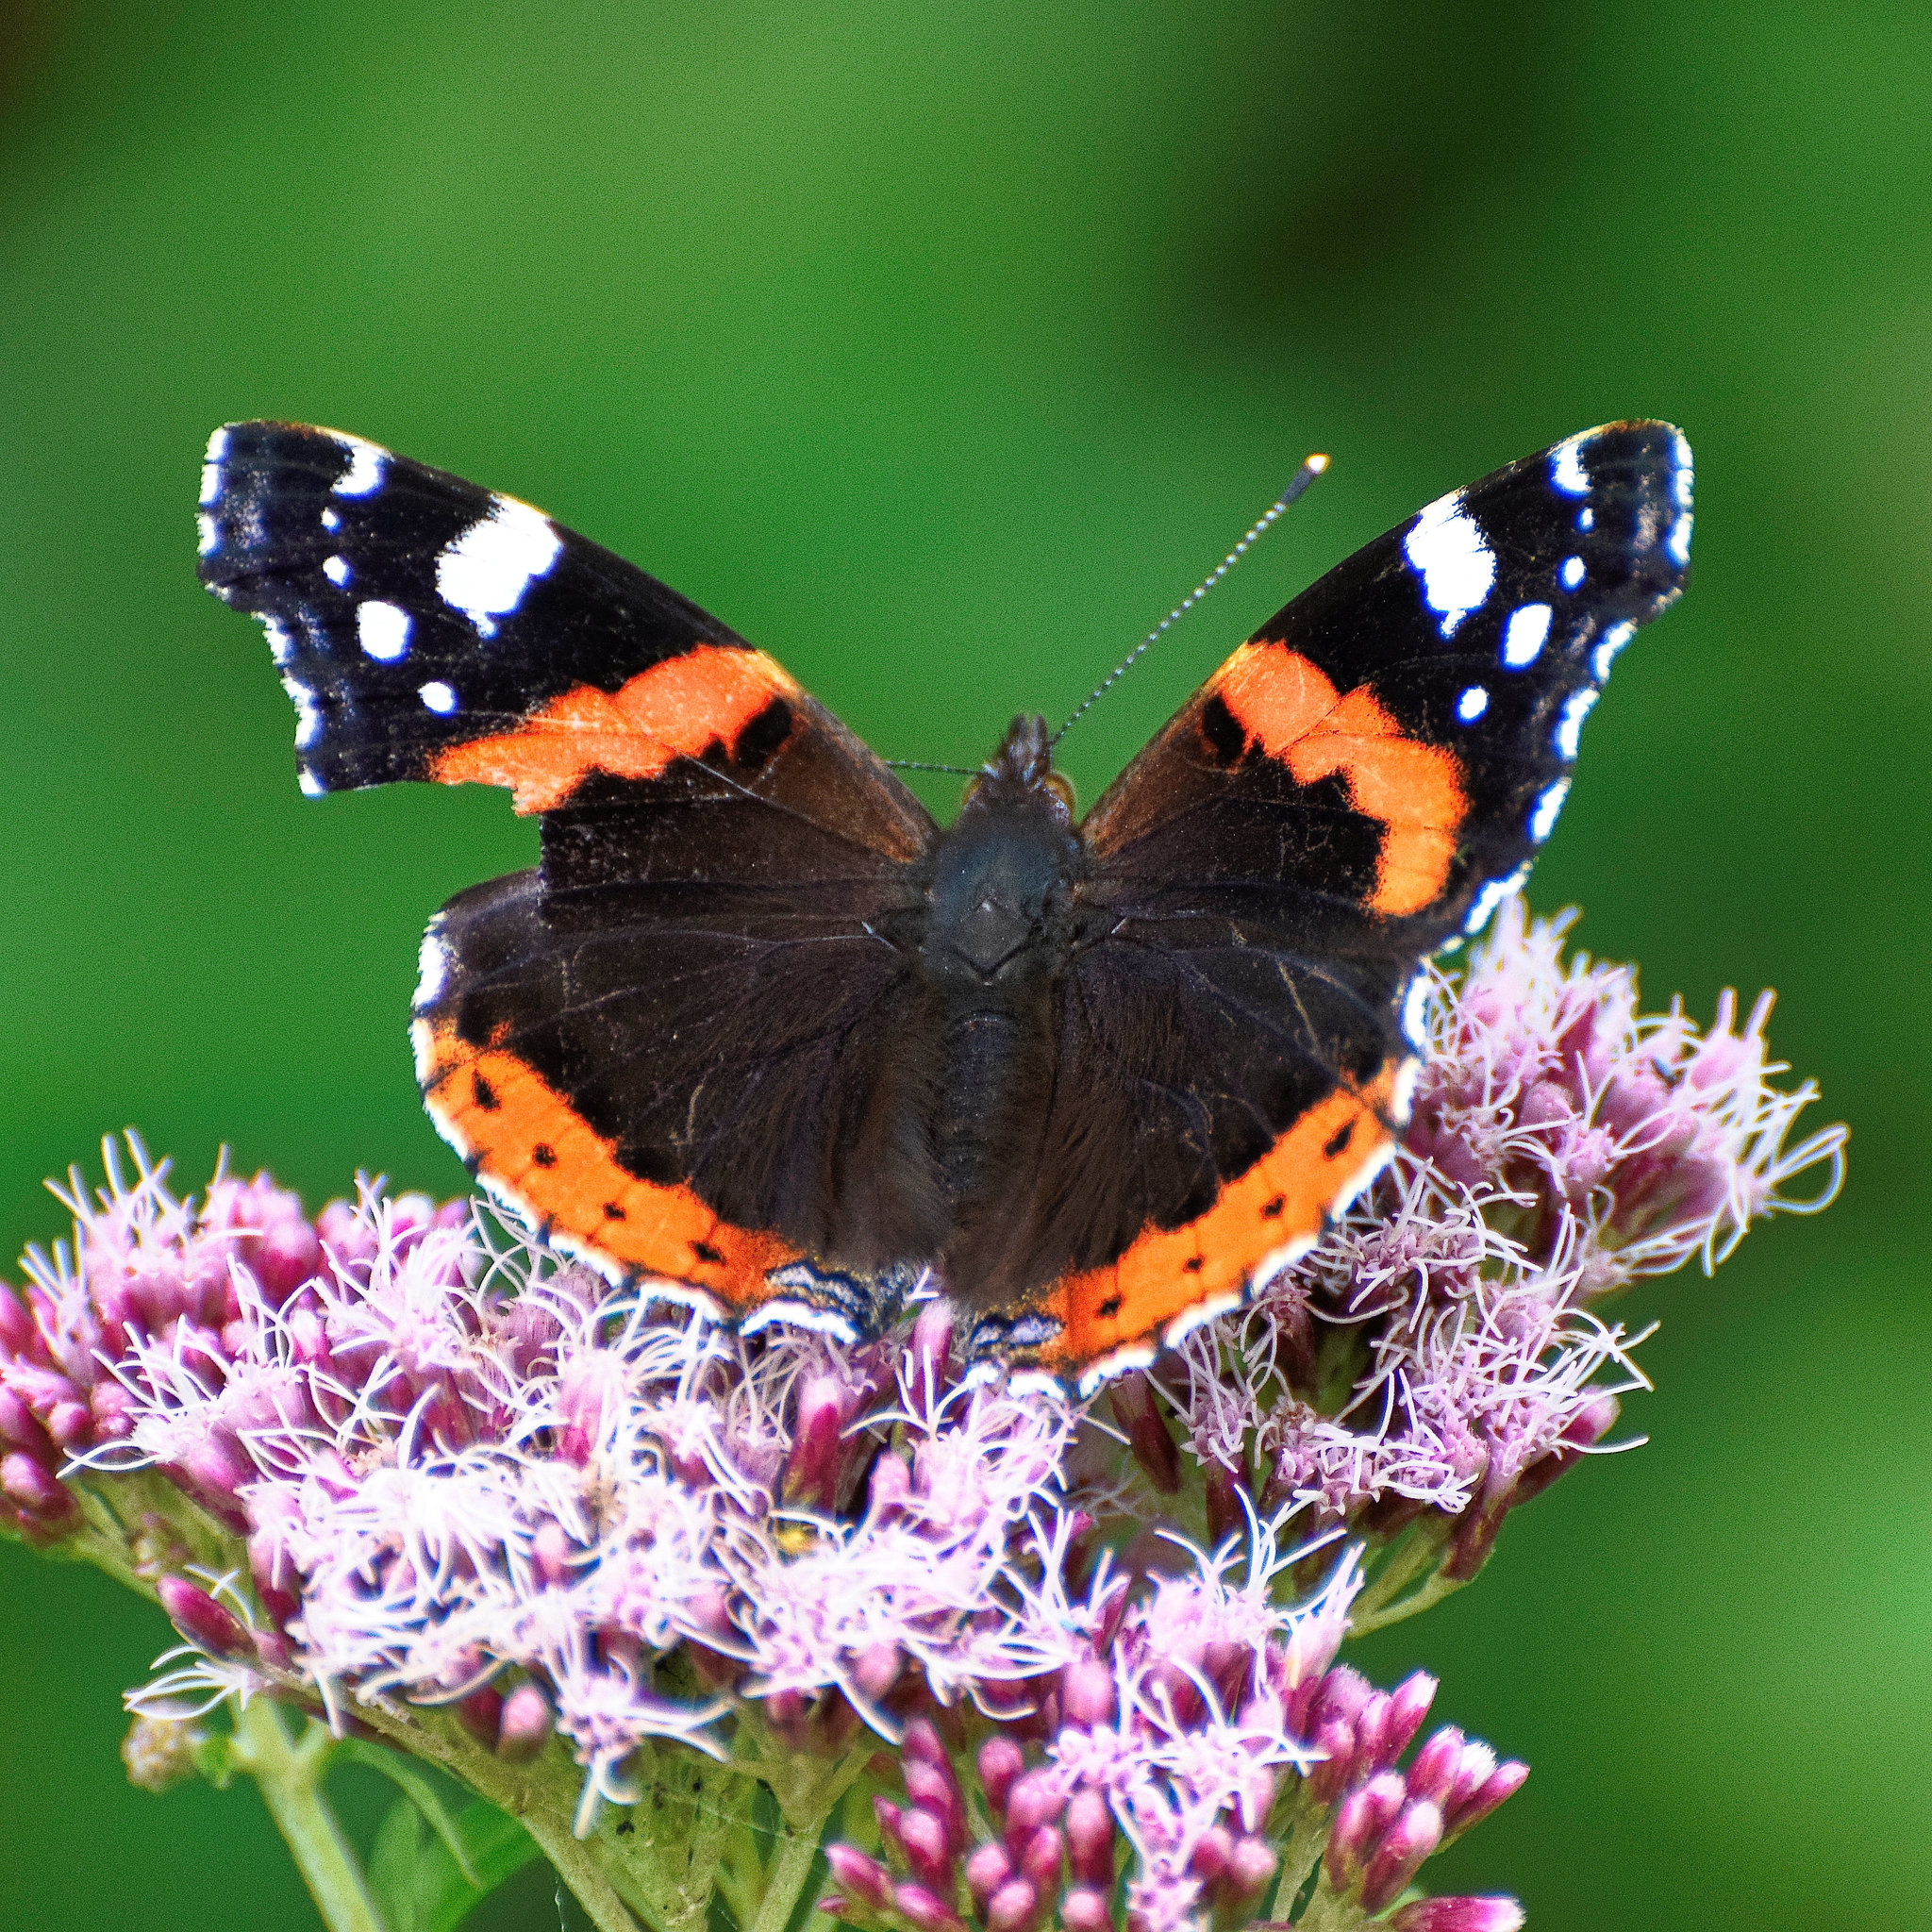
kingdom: Animalia
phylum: Arthropoda
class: Insecta
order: Lepidoptera
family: Nymphalidae
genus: Vanessa
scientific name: Vanessa atalanta
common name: Red admiral
